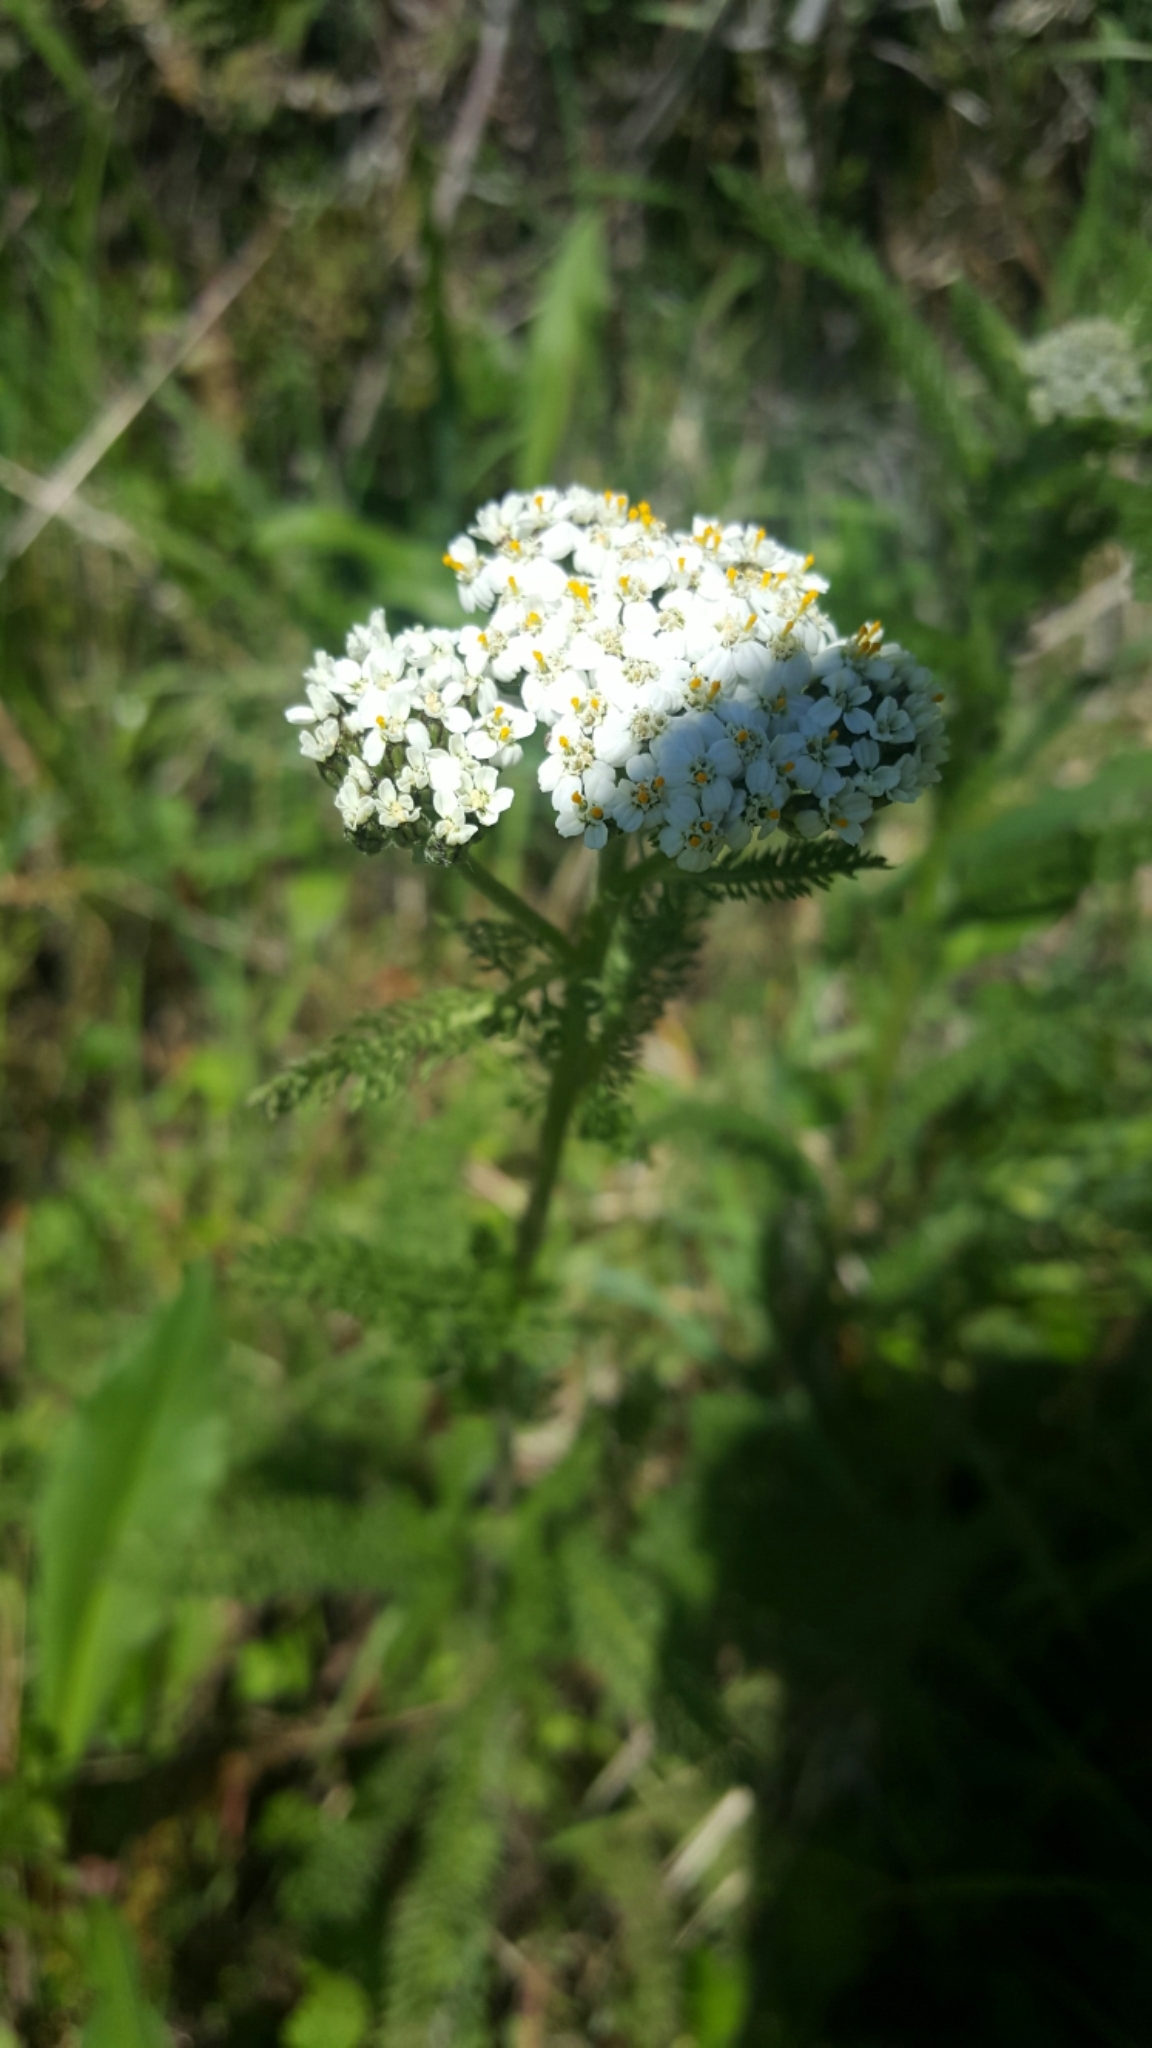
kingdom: Plantae
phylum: Tracheophyta
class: Magnoliopsida
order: Asterales
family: Asteraceae
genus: Achillea
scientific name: Achillea millefolium
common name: Yarrow
